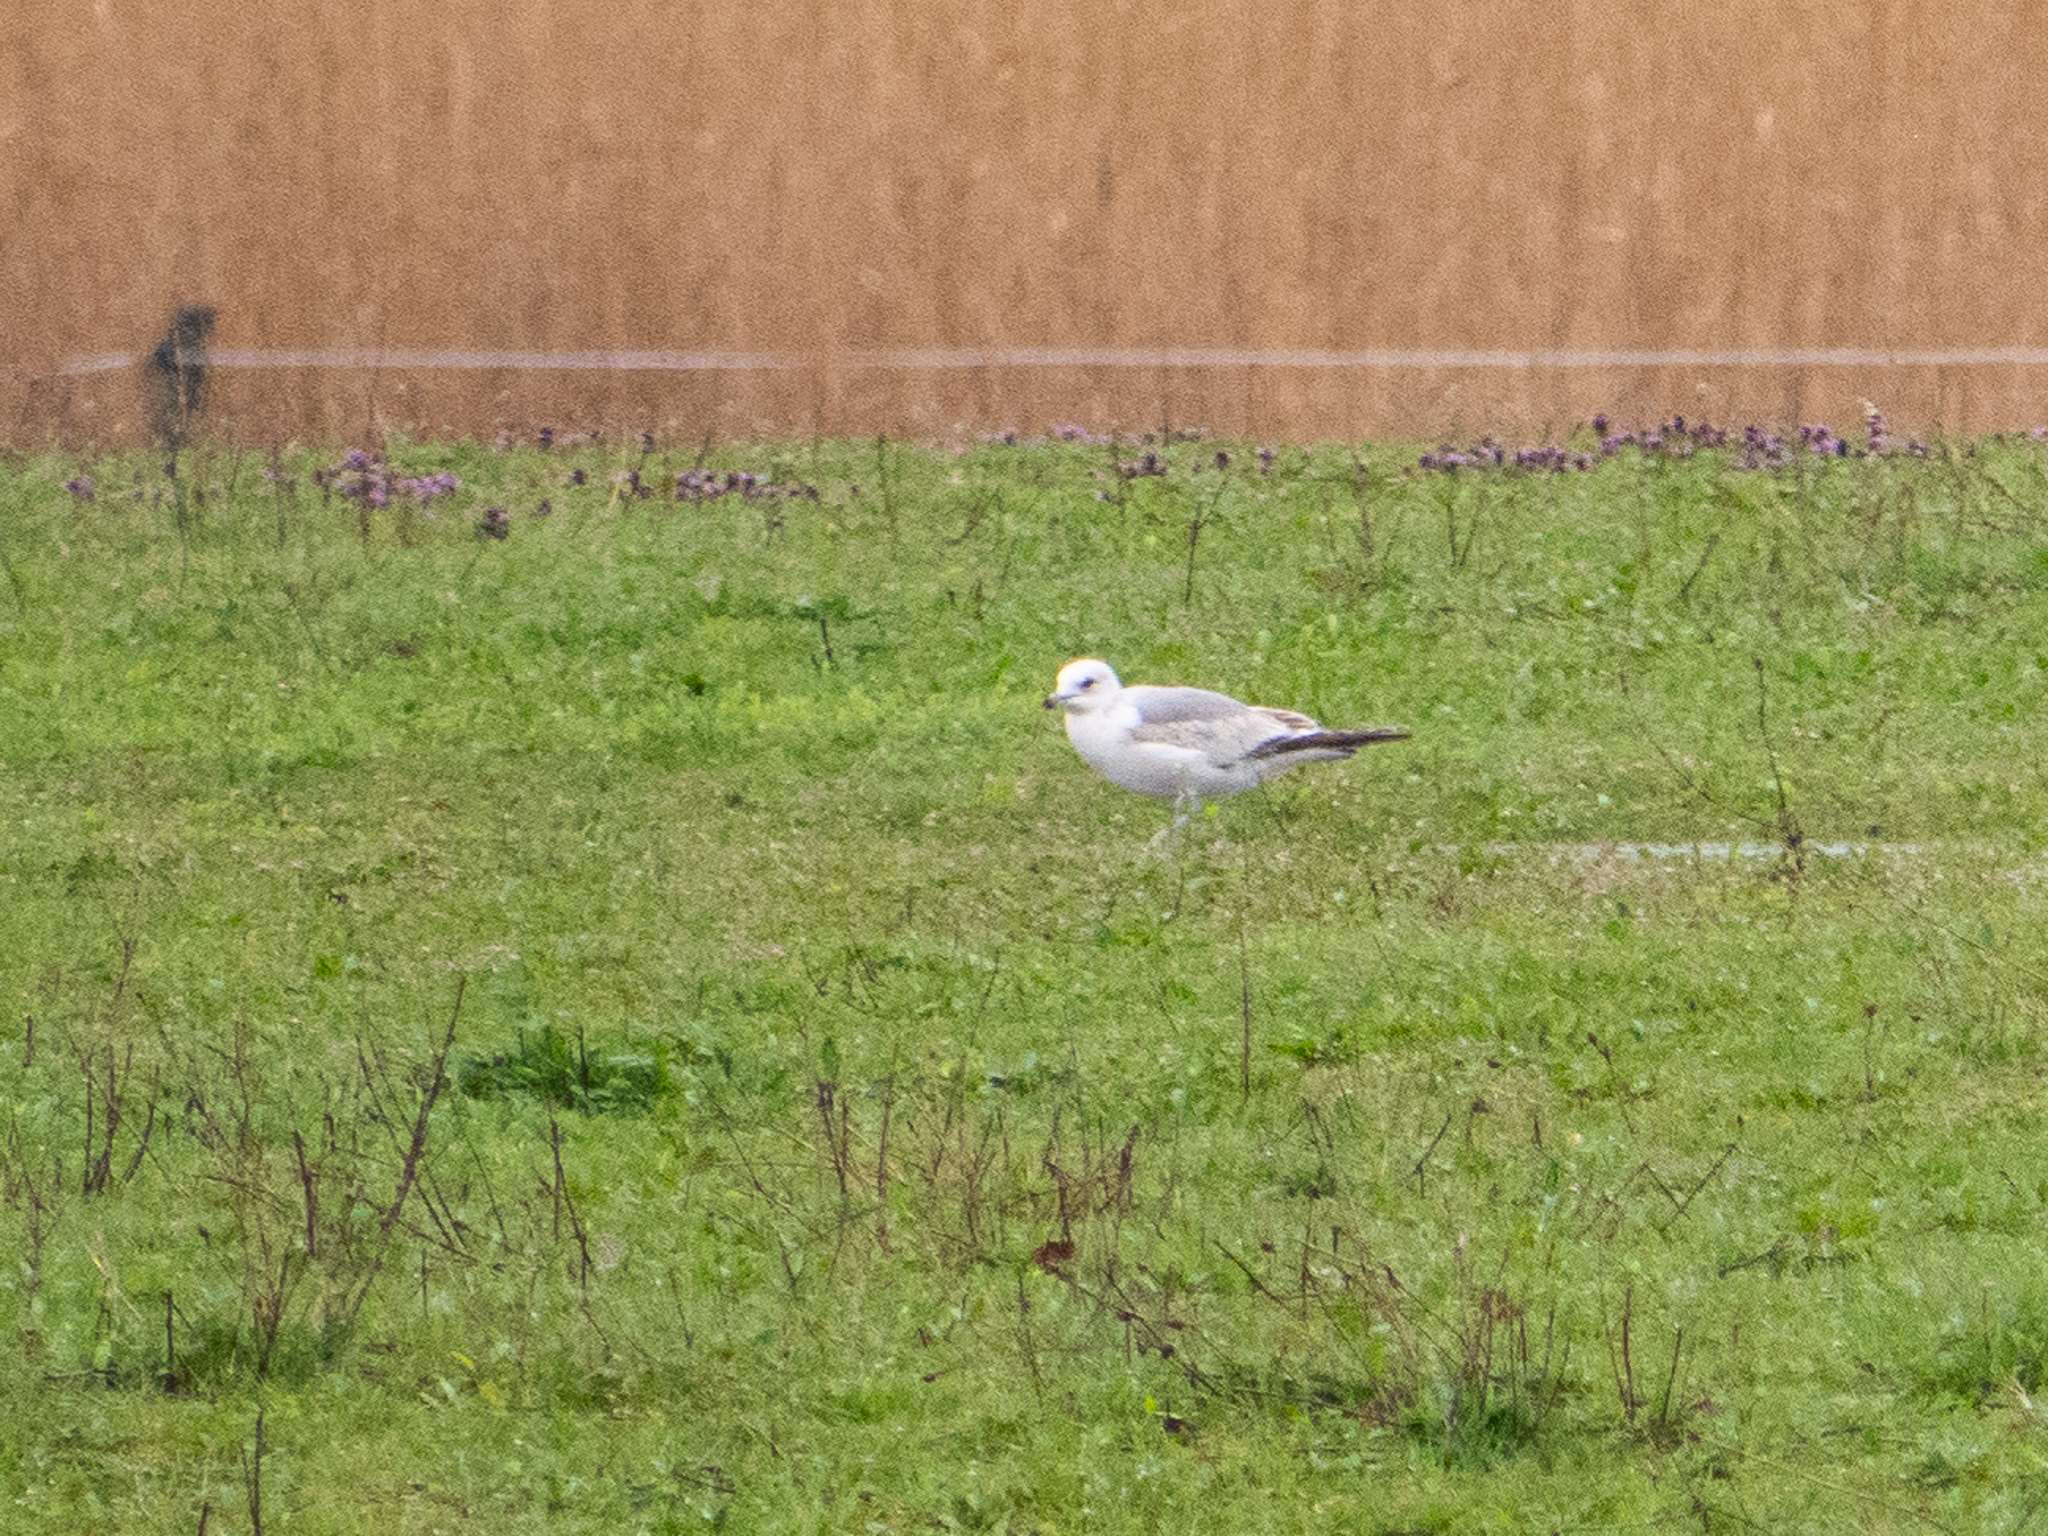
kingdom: Animalia
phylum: Chordata
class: Aves
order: Charadriiformes
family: Laridae
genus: Larus
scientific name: Larus canus
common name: Mew gull
